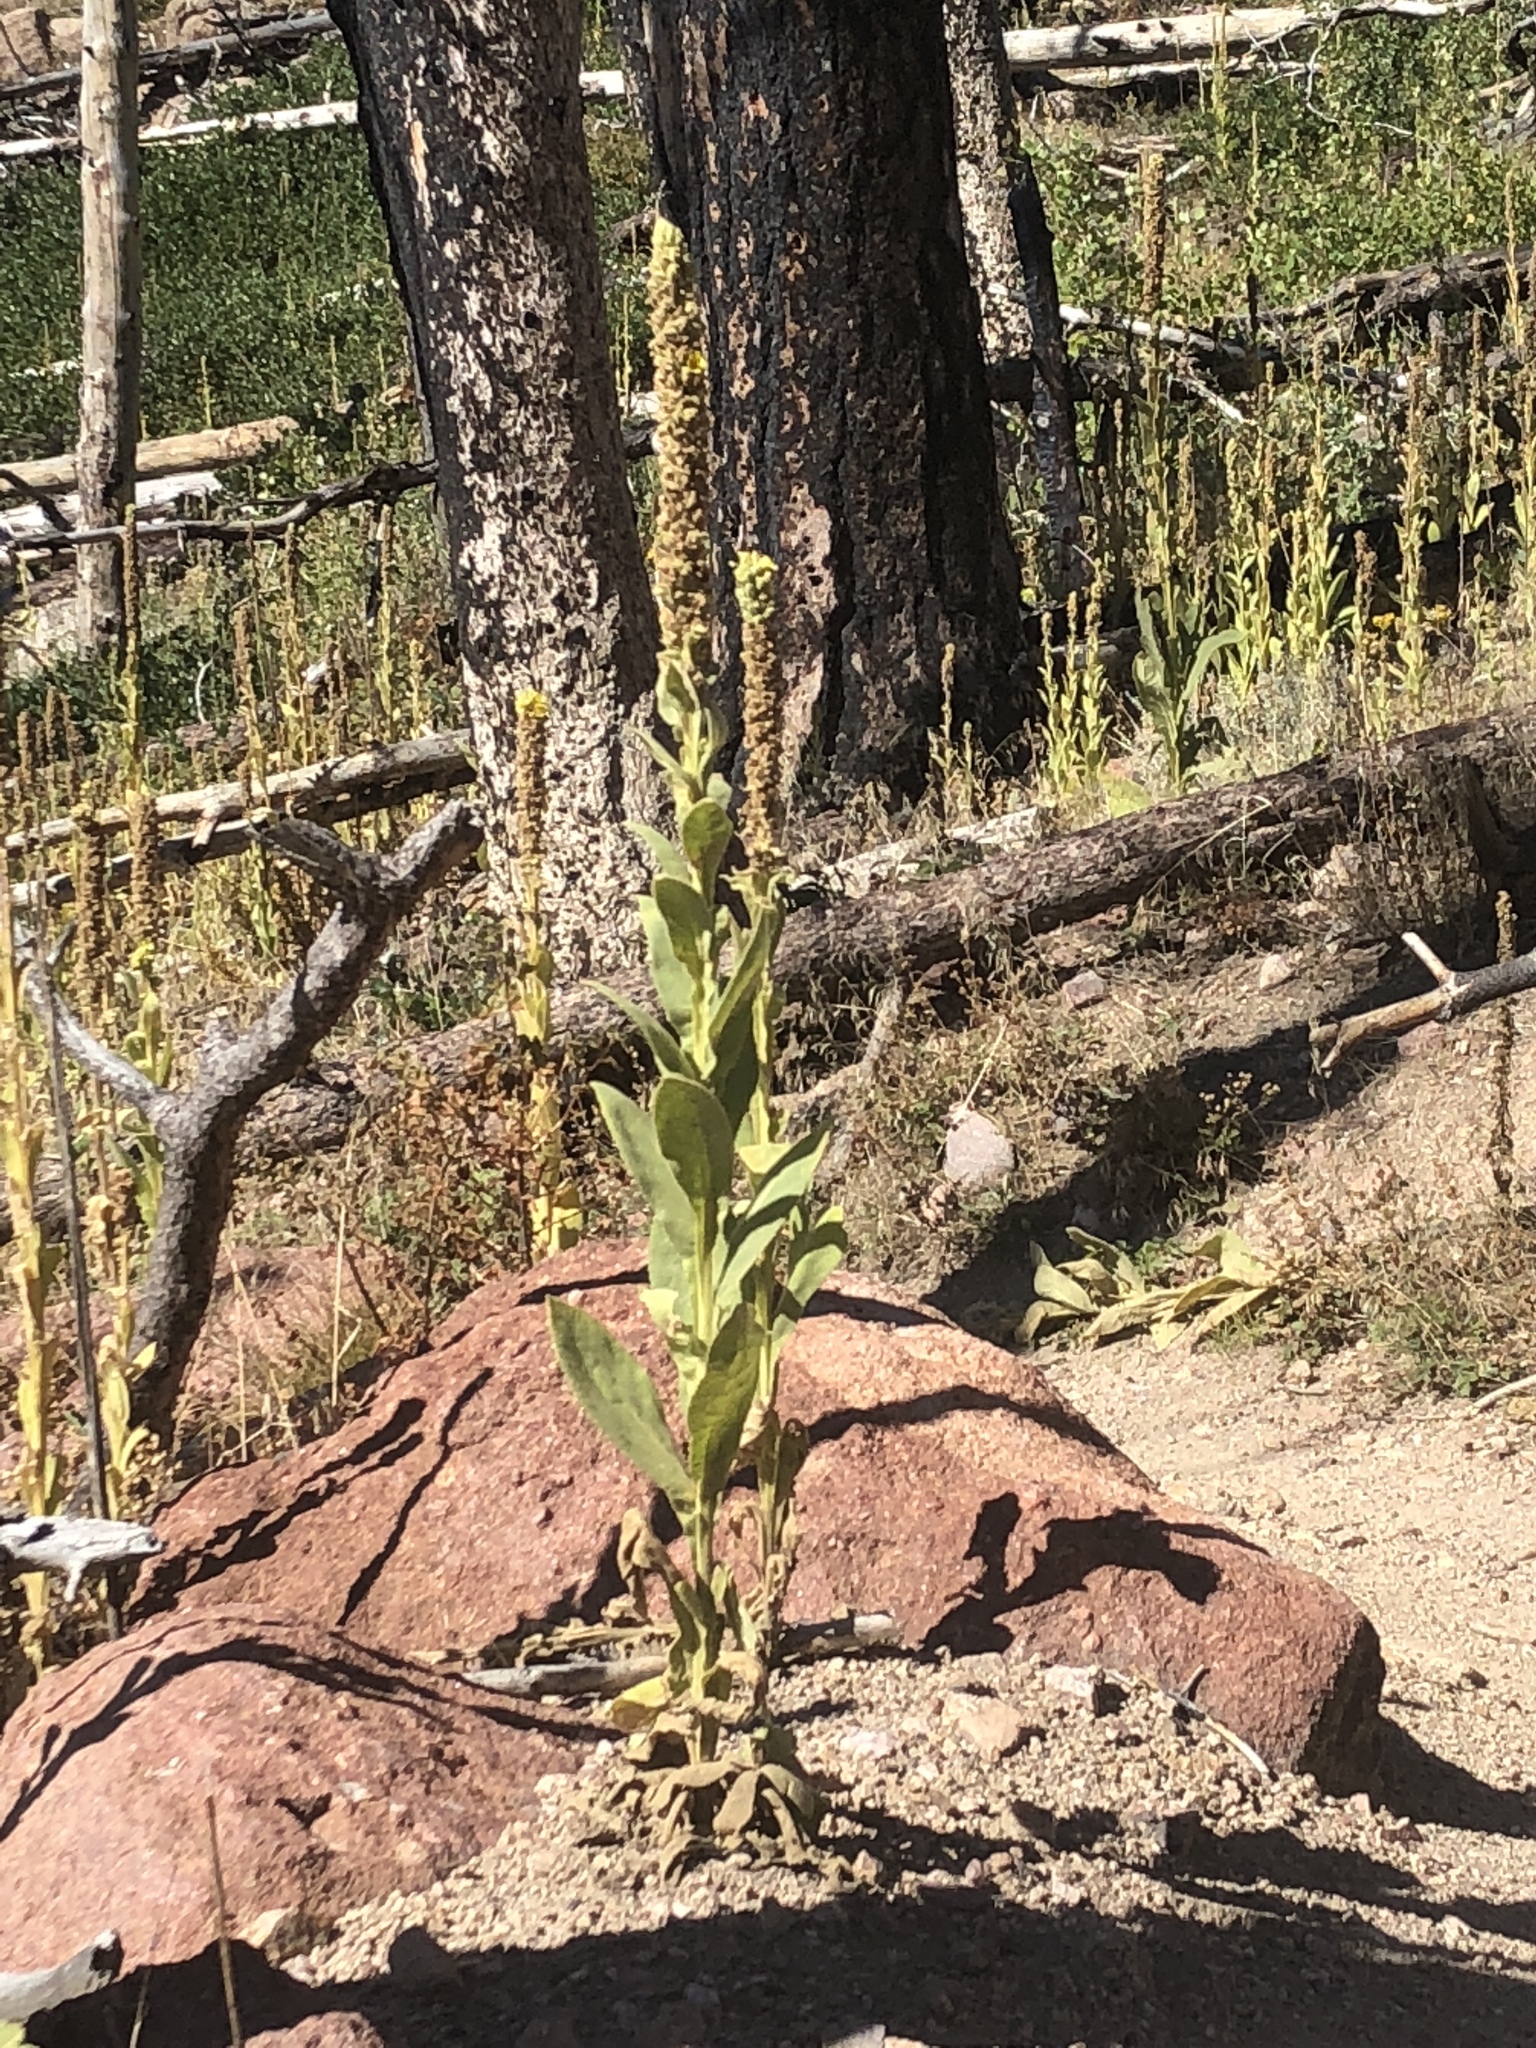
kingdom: Plantae
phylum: Tracheophyta
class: Magnoliopsida
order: Lamiales
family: Scrophulariaceae
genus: Verbascum
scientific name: Verbascum thapsus
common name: Common mullein
